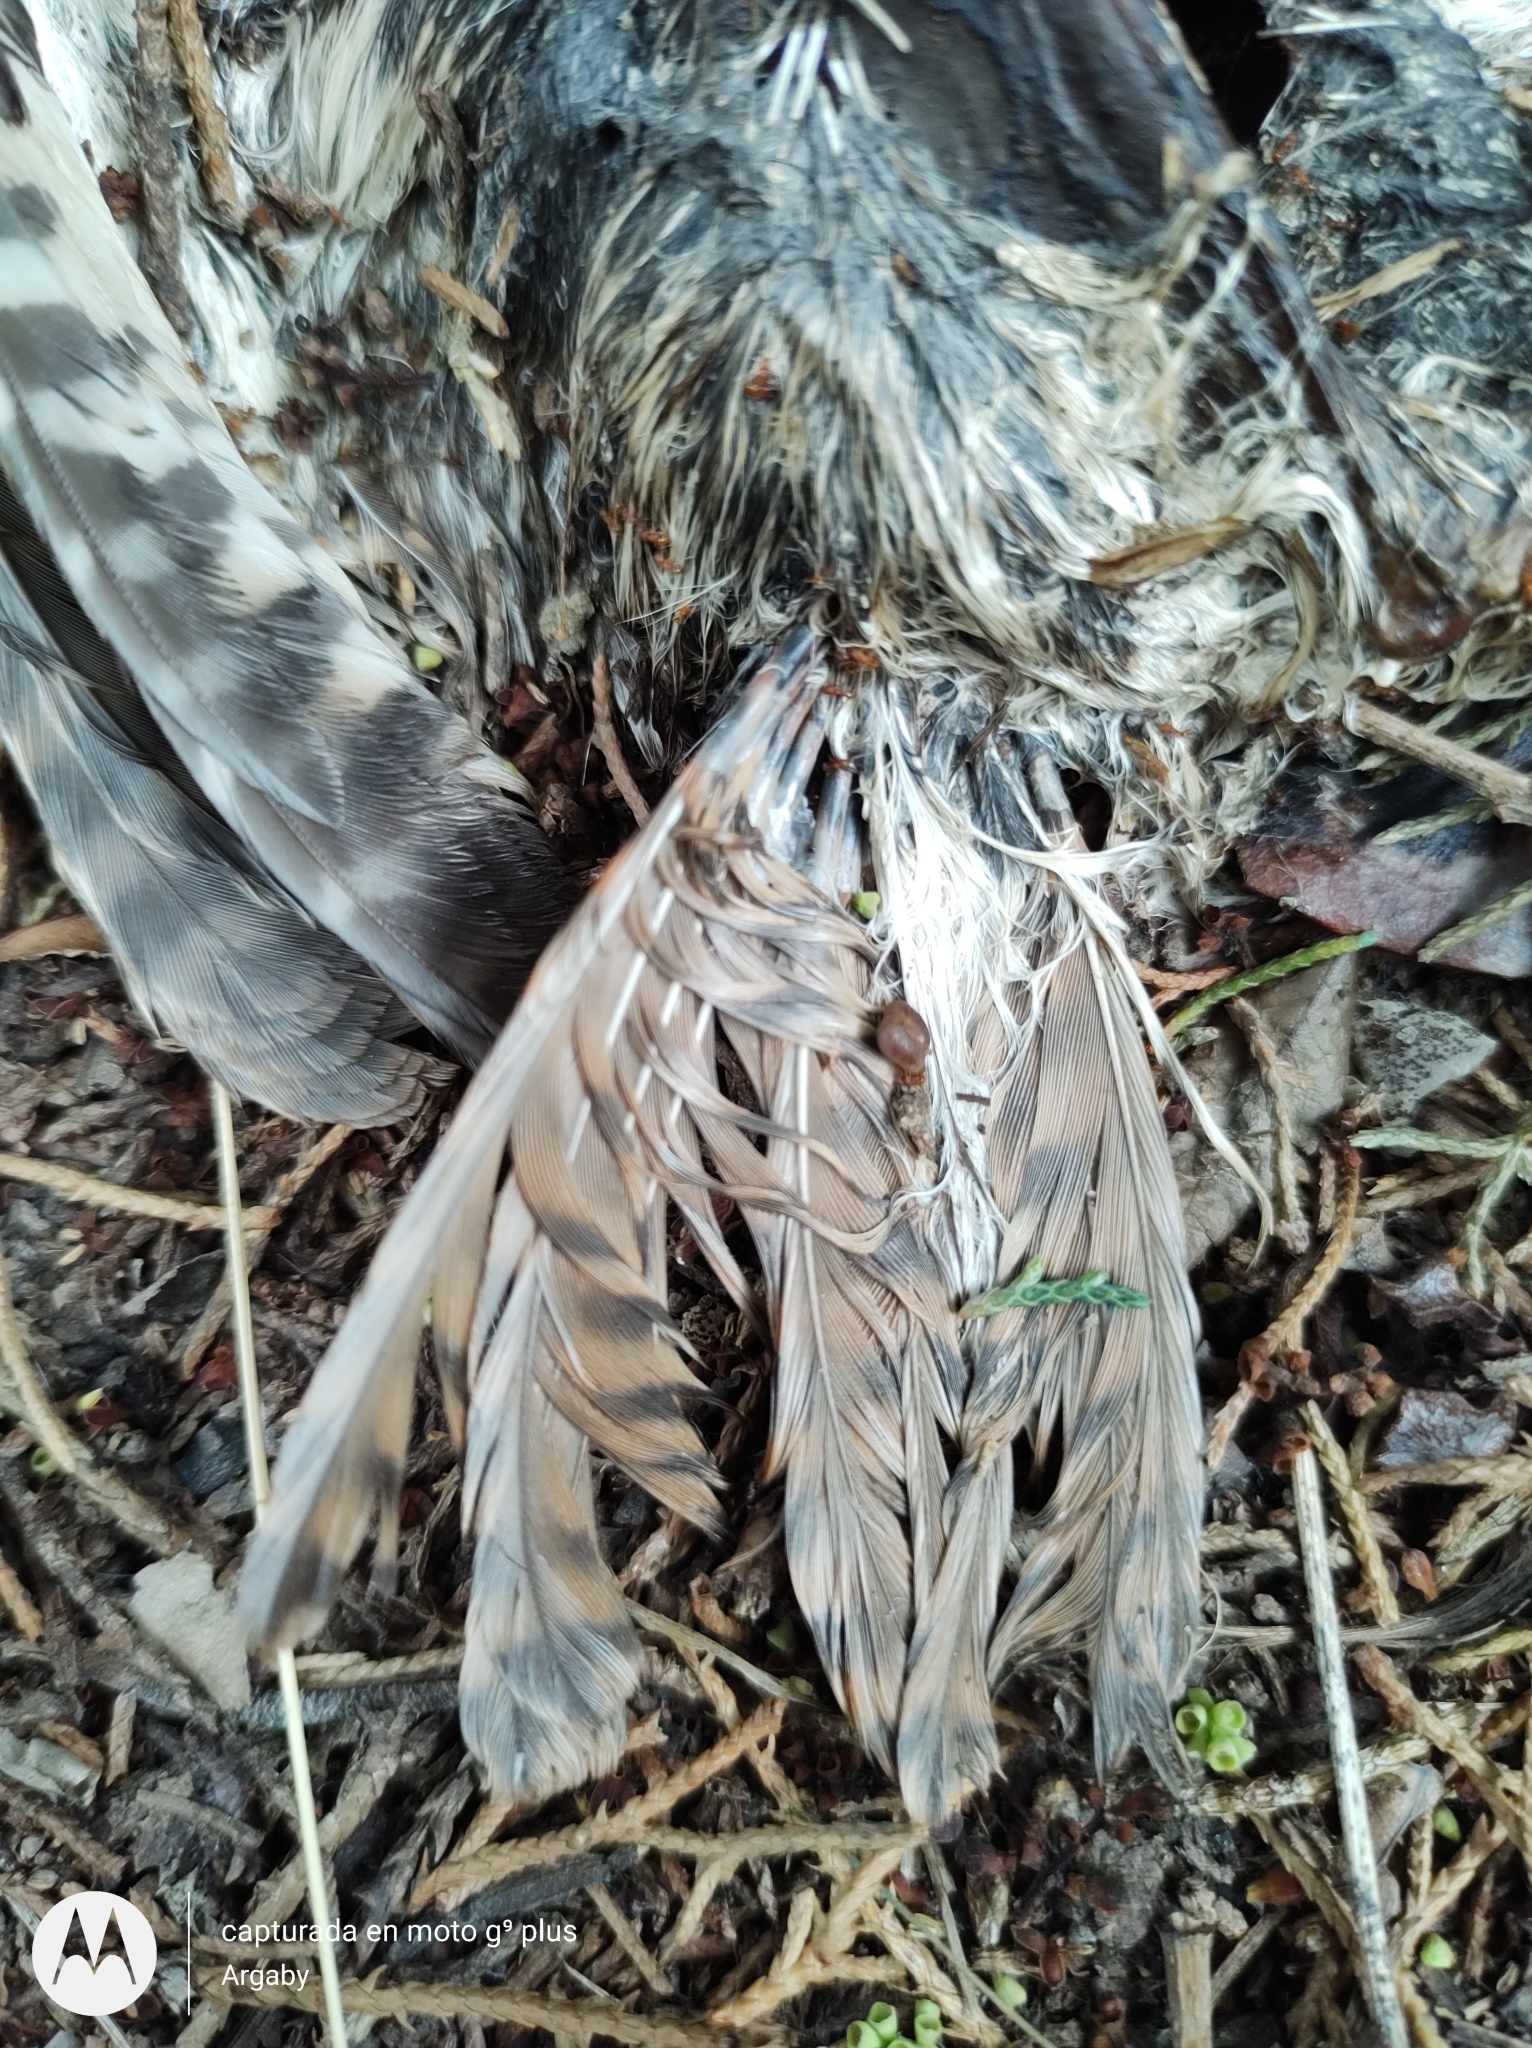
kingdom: Animalia
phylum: Chordata
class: Aves
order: Strigiformes
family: Strigidae
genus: Athene
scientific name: Athene cunicularia
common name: Burrowing owl
